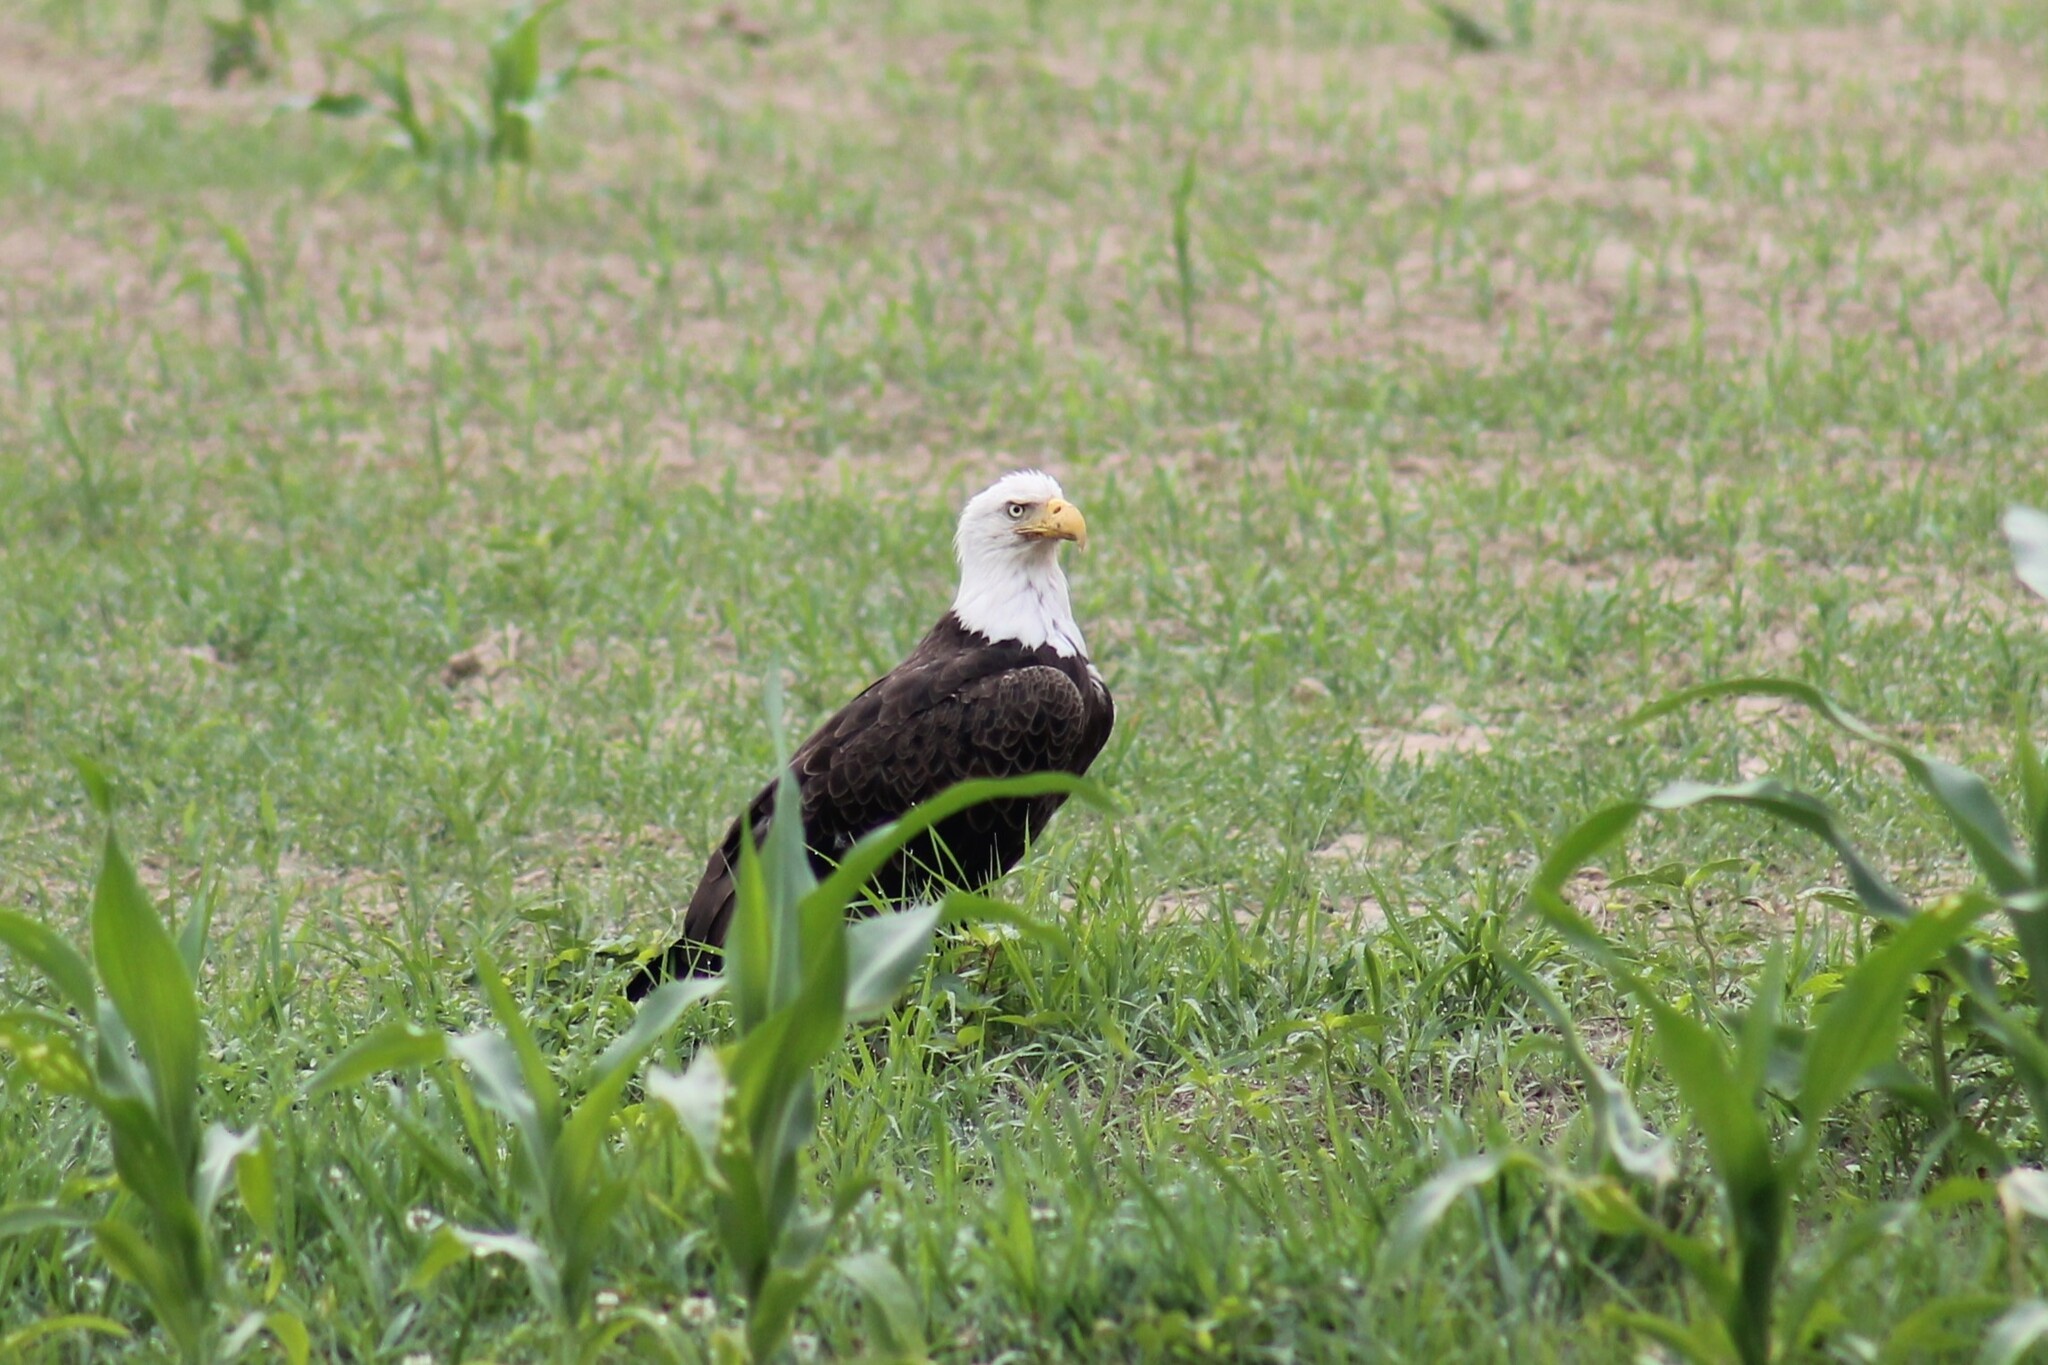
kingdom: Animalia
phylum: Chordata
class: Aves
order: Accipitriformes
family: Accipitridae
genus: Haliaeetus
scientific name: Haliaeetus leucocephalus
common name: Bald eagle
